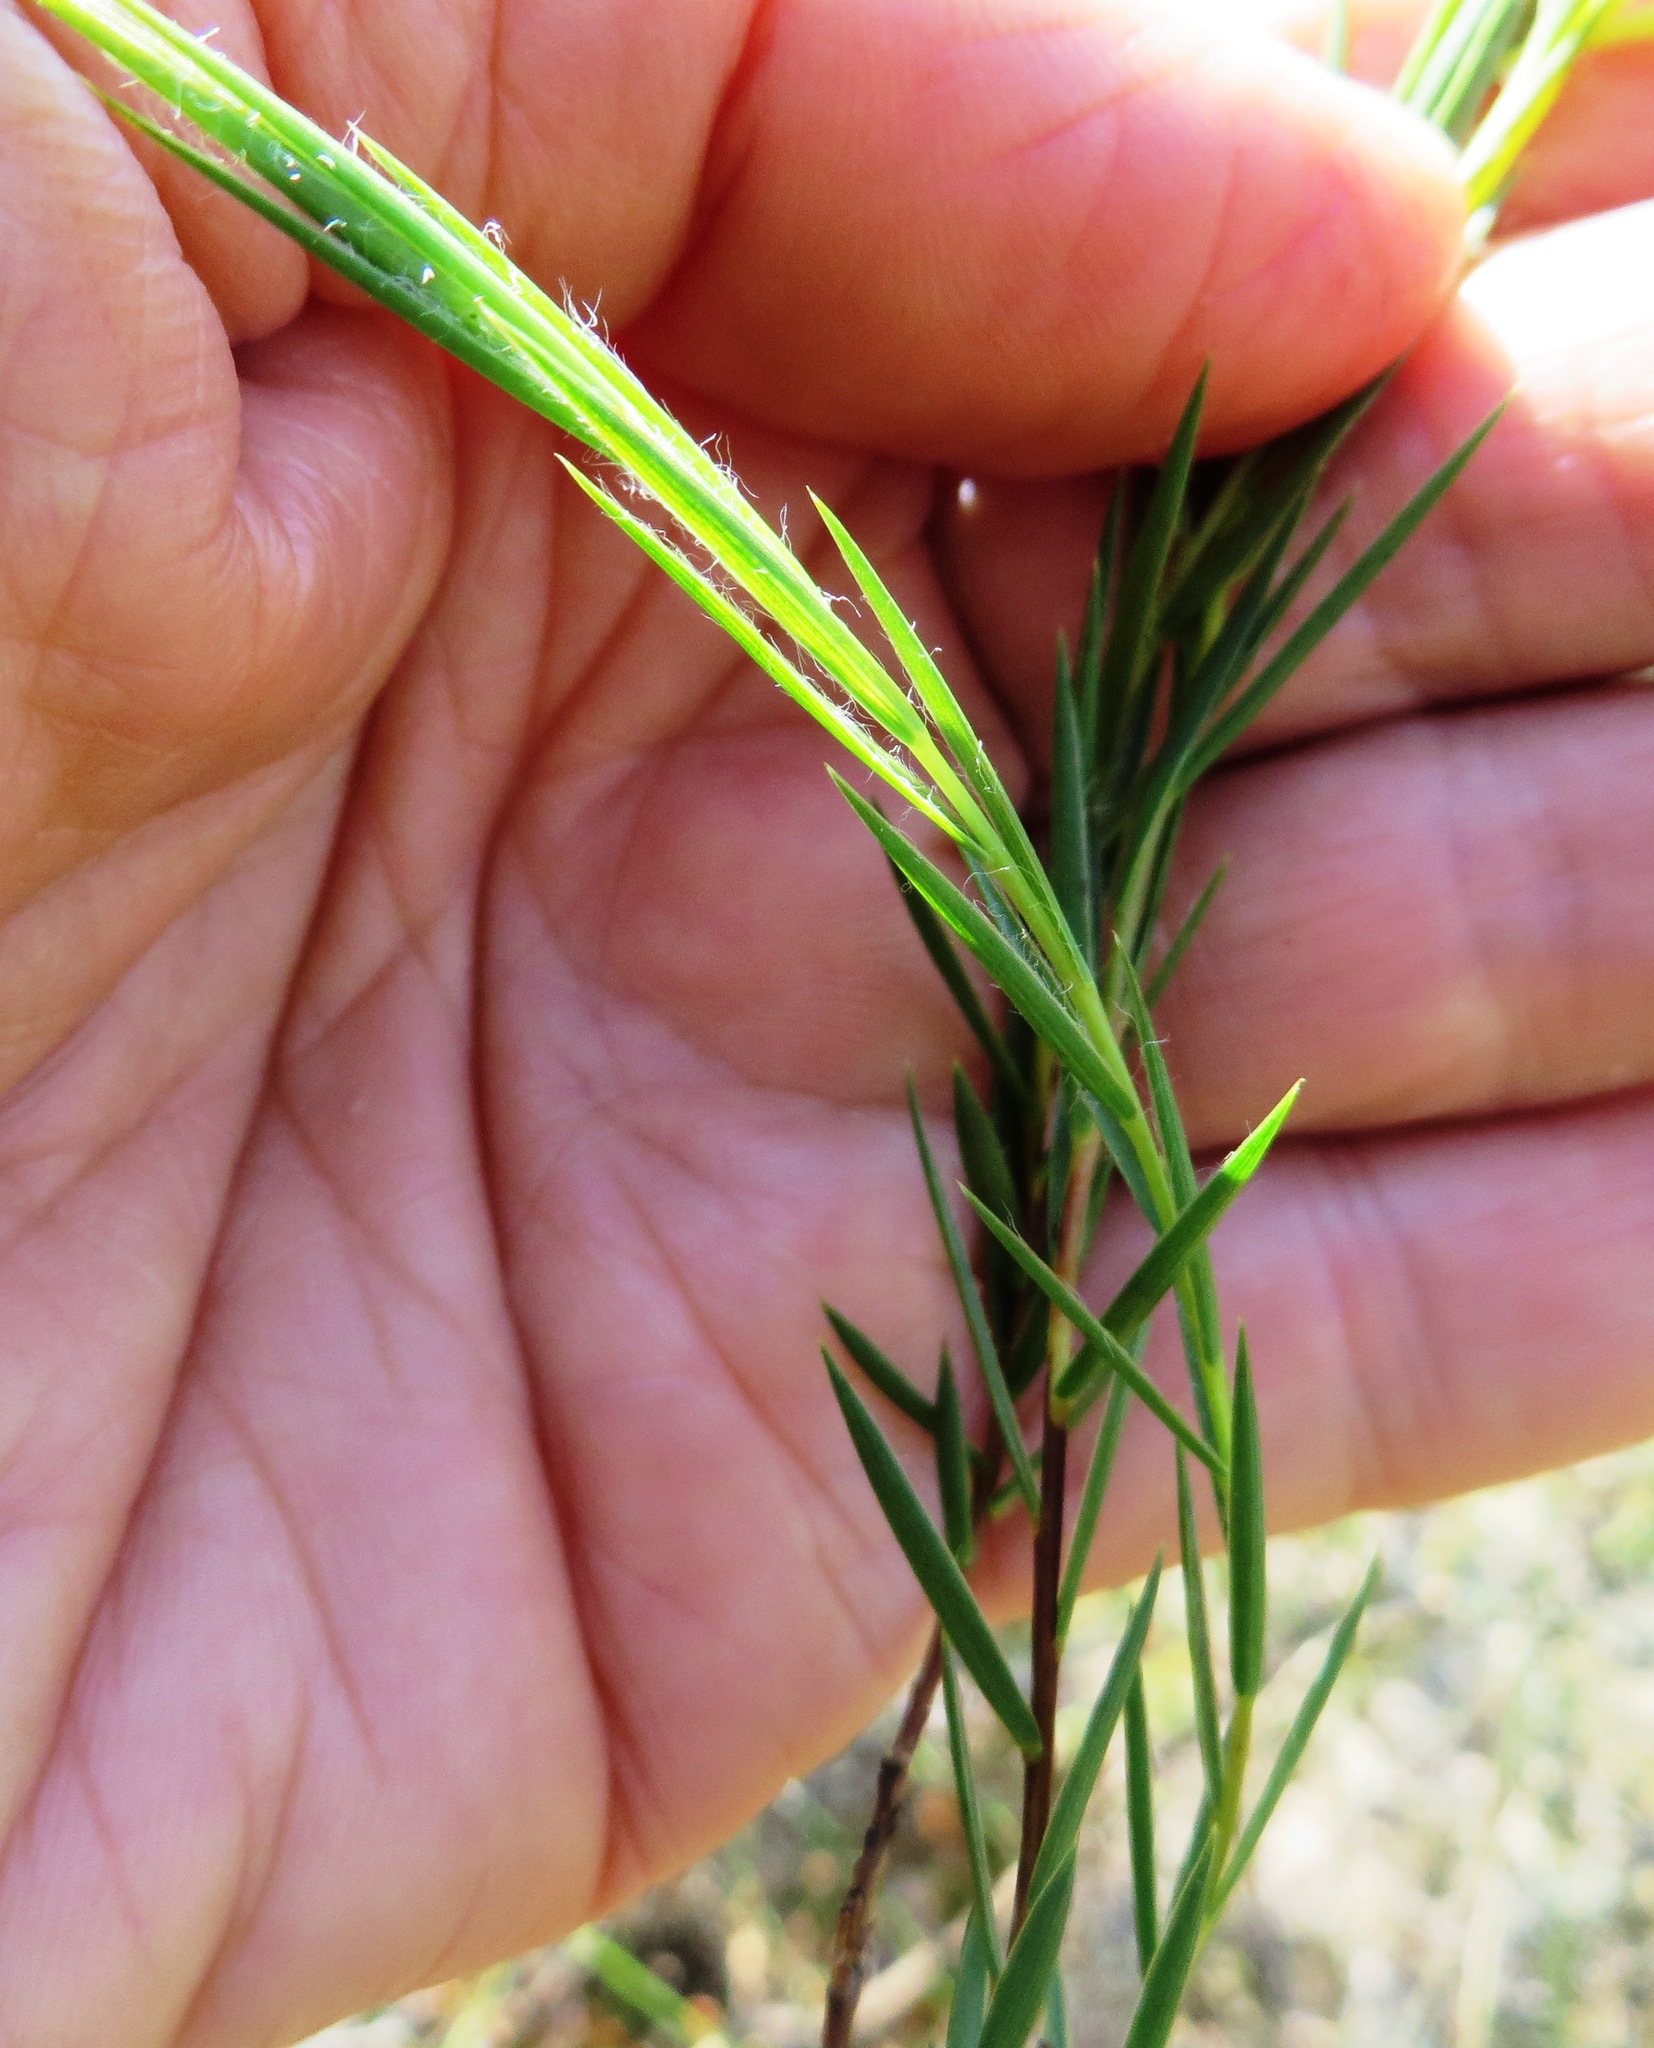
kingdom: Plantae
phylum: Tracheophyta
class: Magnoliopsida
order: Fabales
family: Fabaceae
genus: Aspalathus
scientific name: Aspalathus angustifolia
